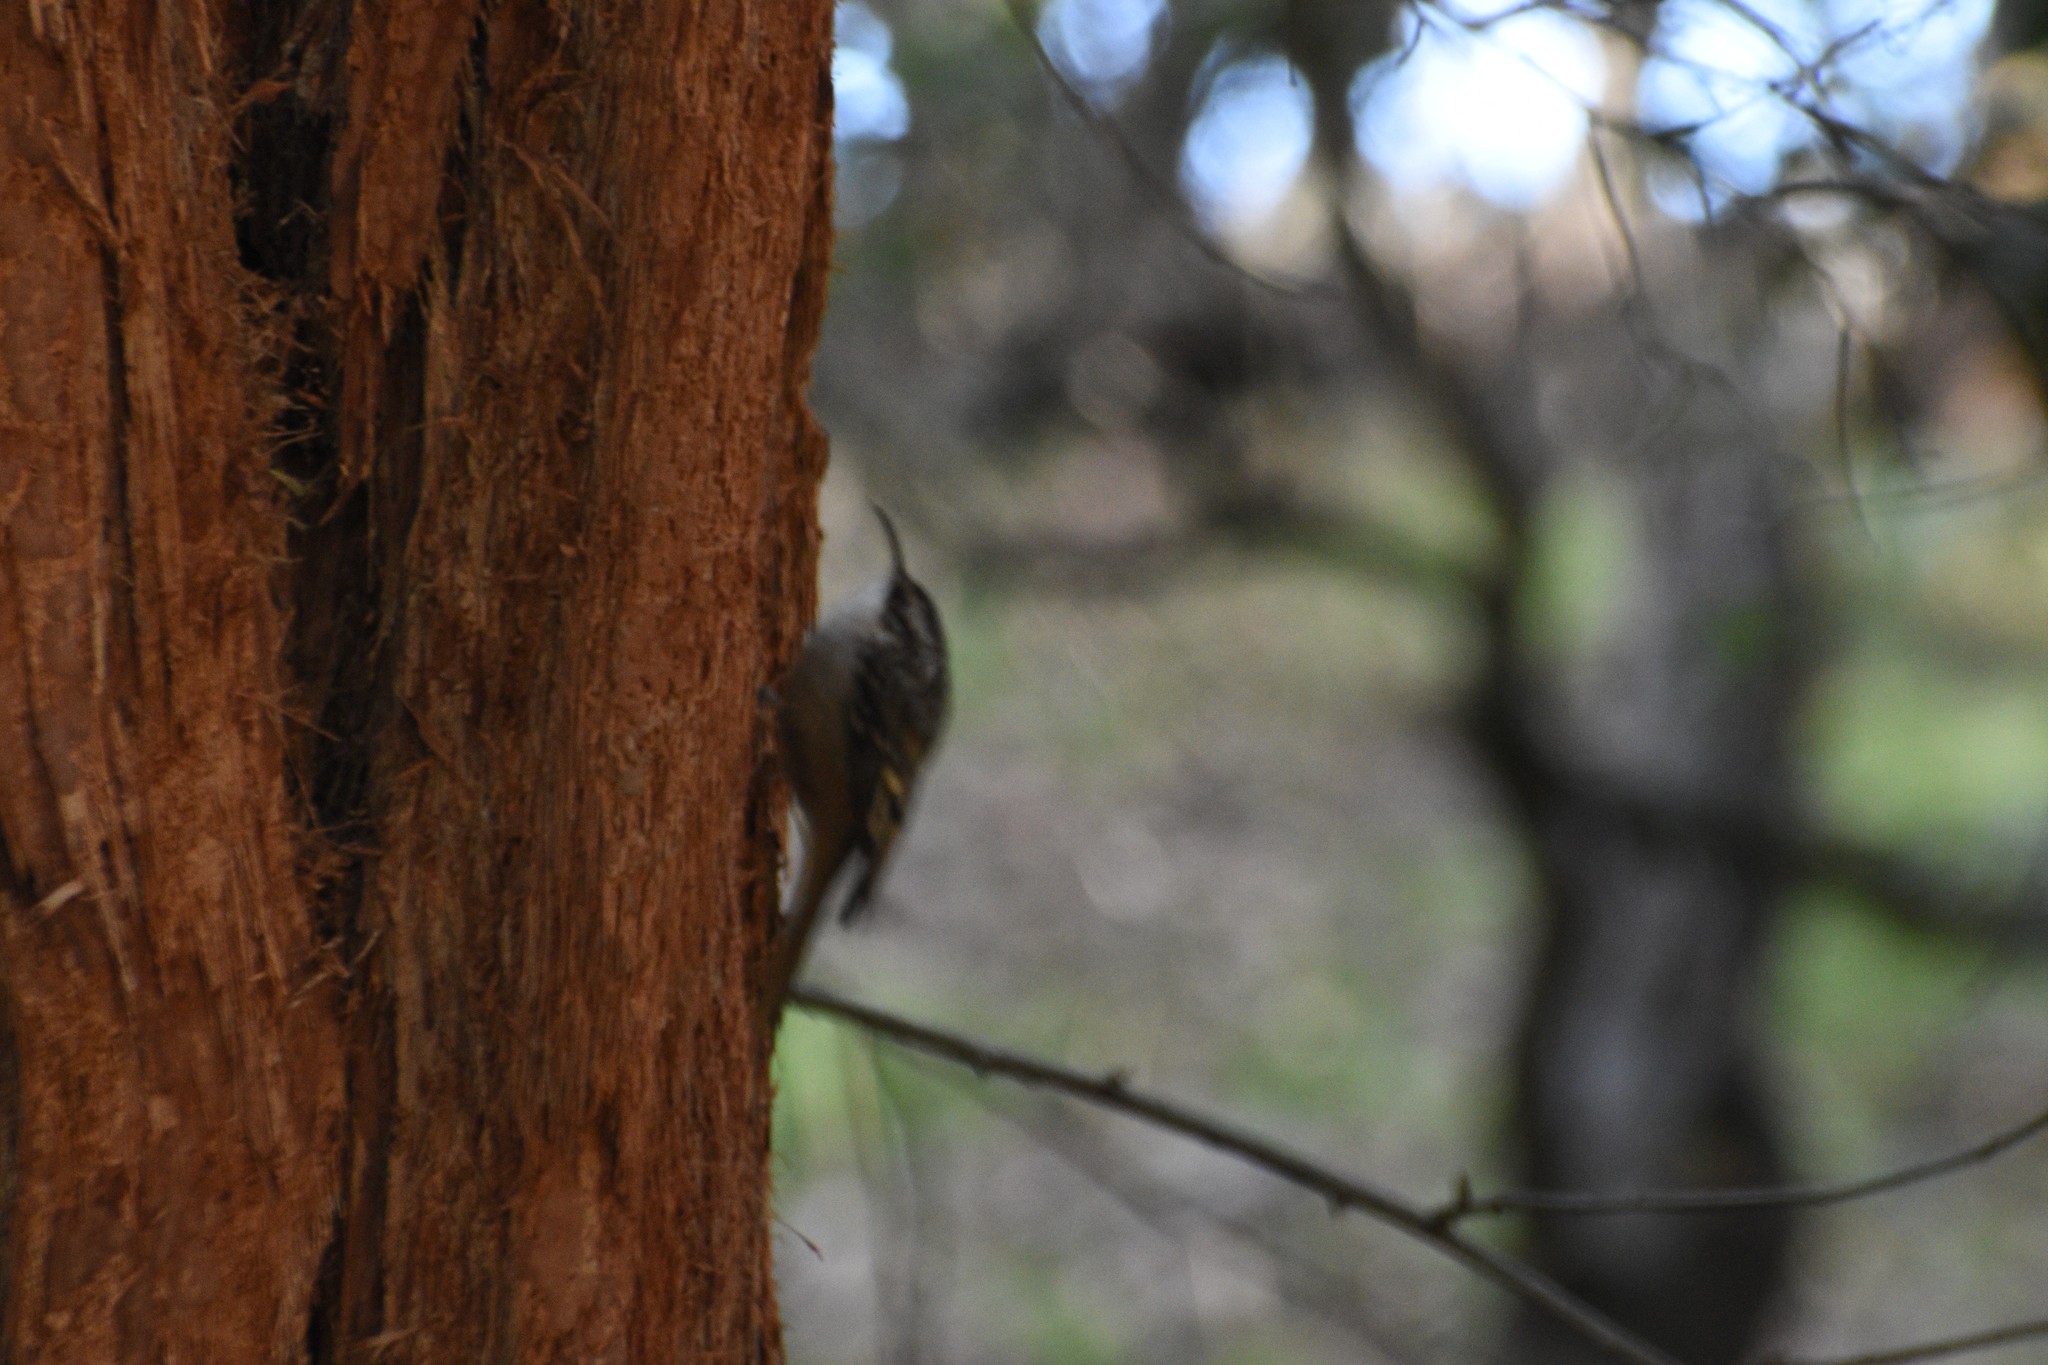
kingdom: Animalia
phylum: Chordata
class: Aves
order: Passeriformes
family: Certhiidae
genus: Certhia
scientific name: Certhia americana
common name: Brown creeper
